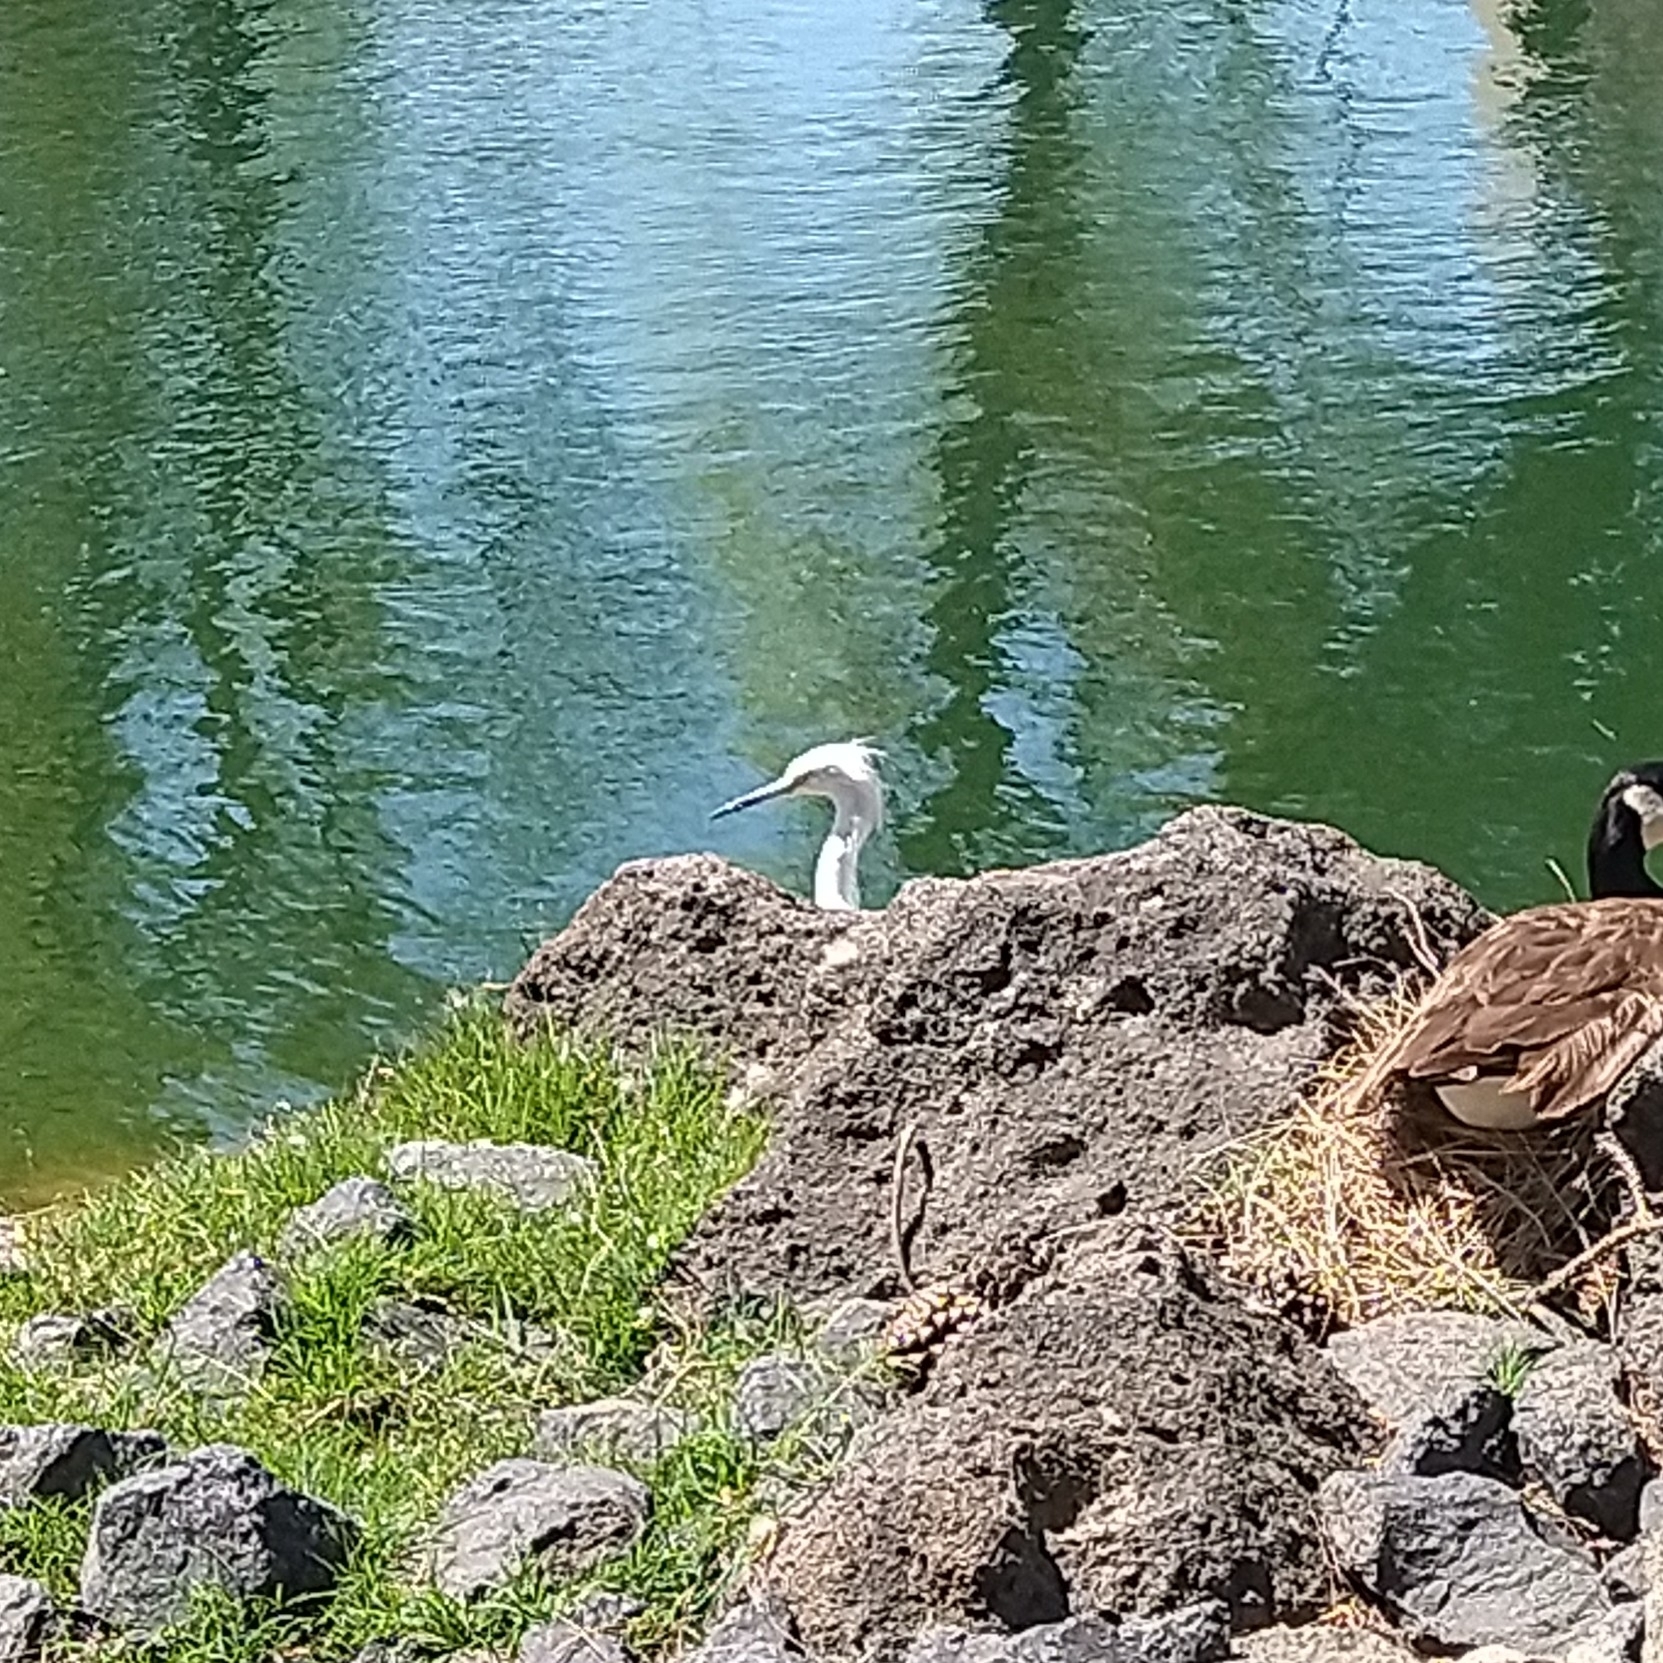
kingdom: Animalia
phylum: Chordata
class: Aves
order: Pelecaniformes
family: Ardeidae
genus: Egretta
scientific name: Egretta thula
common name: Snowy egret
